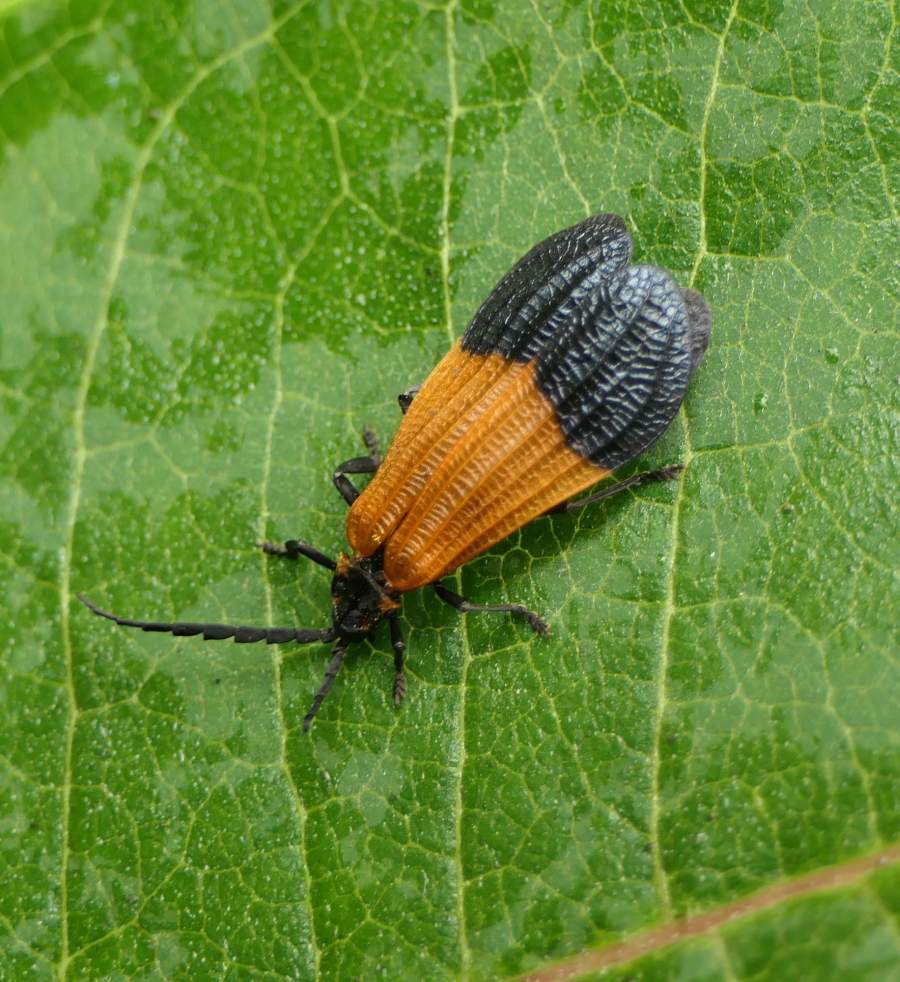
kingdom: Animalia
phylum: Arthropoda
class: Insecta
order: Coleoptera
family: Lycidae
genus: Calopteron
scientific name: Calopteron terminale
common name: End band net-winged beetle
